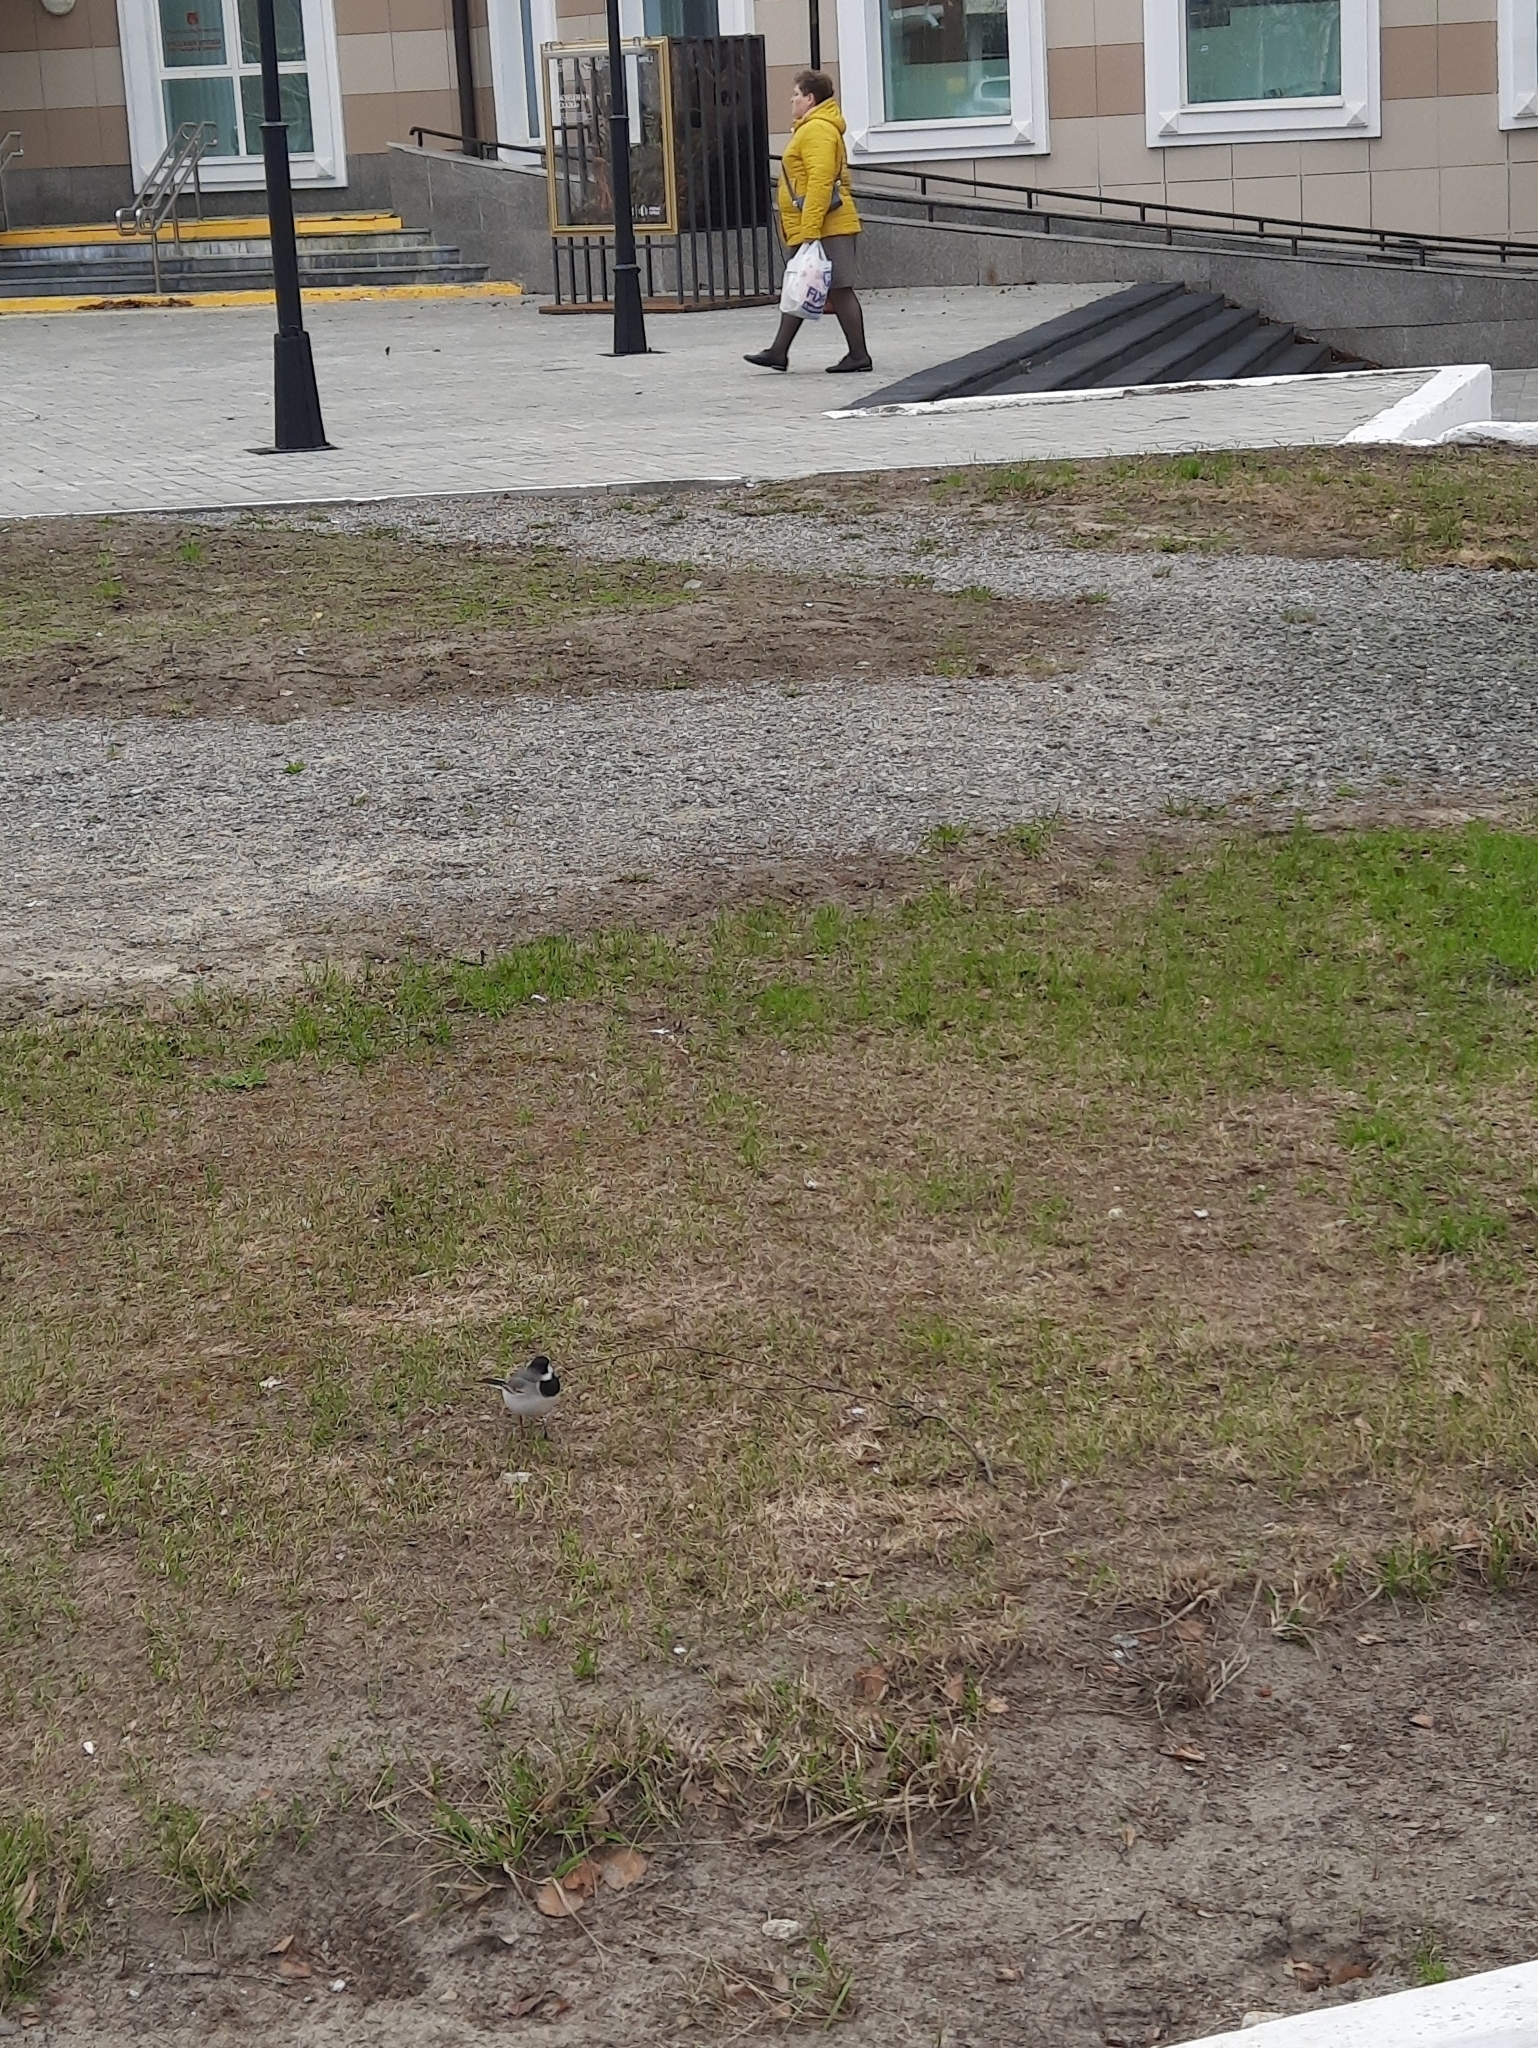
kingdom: Animalia
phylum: Chordata
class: Aves
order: Passeriformes
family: Motacillidae
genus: Motacilla
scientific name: Motacilla alba
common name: White wagtail
